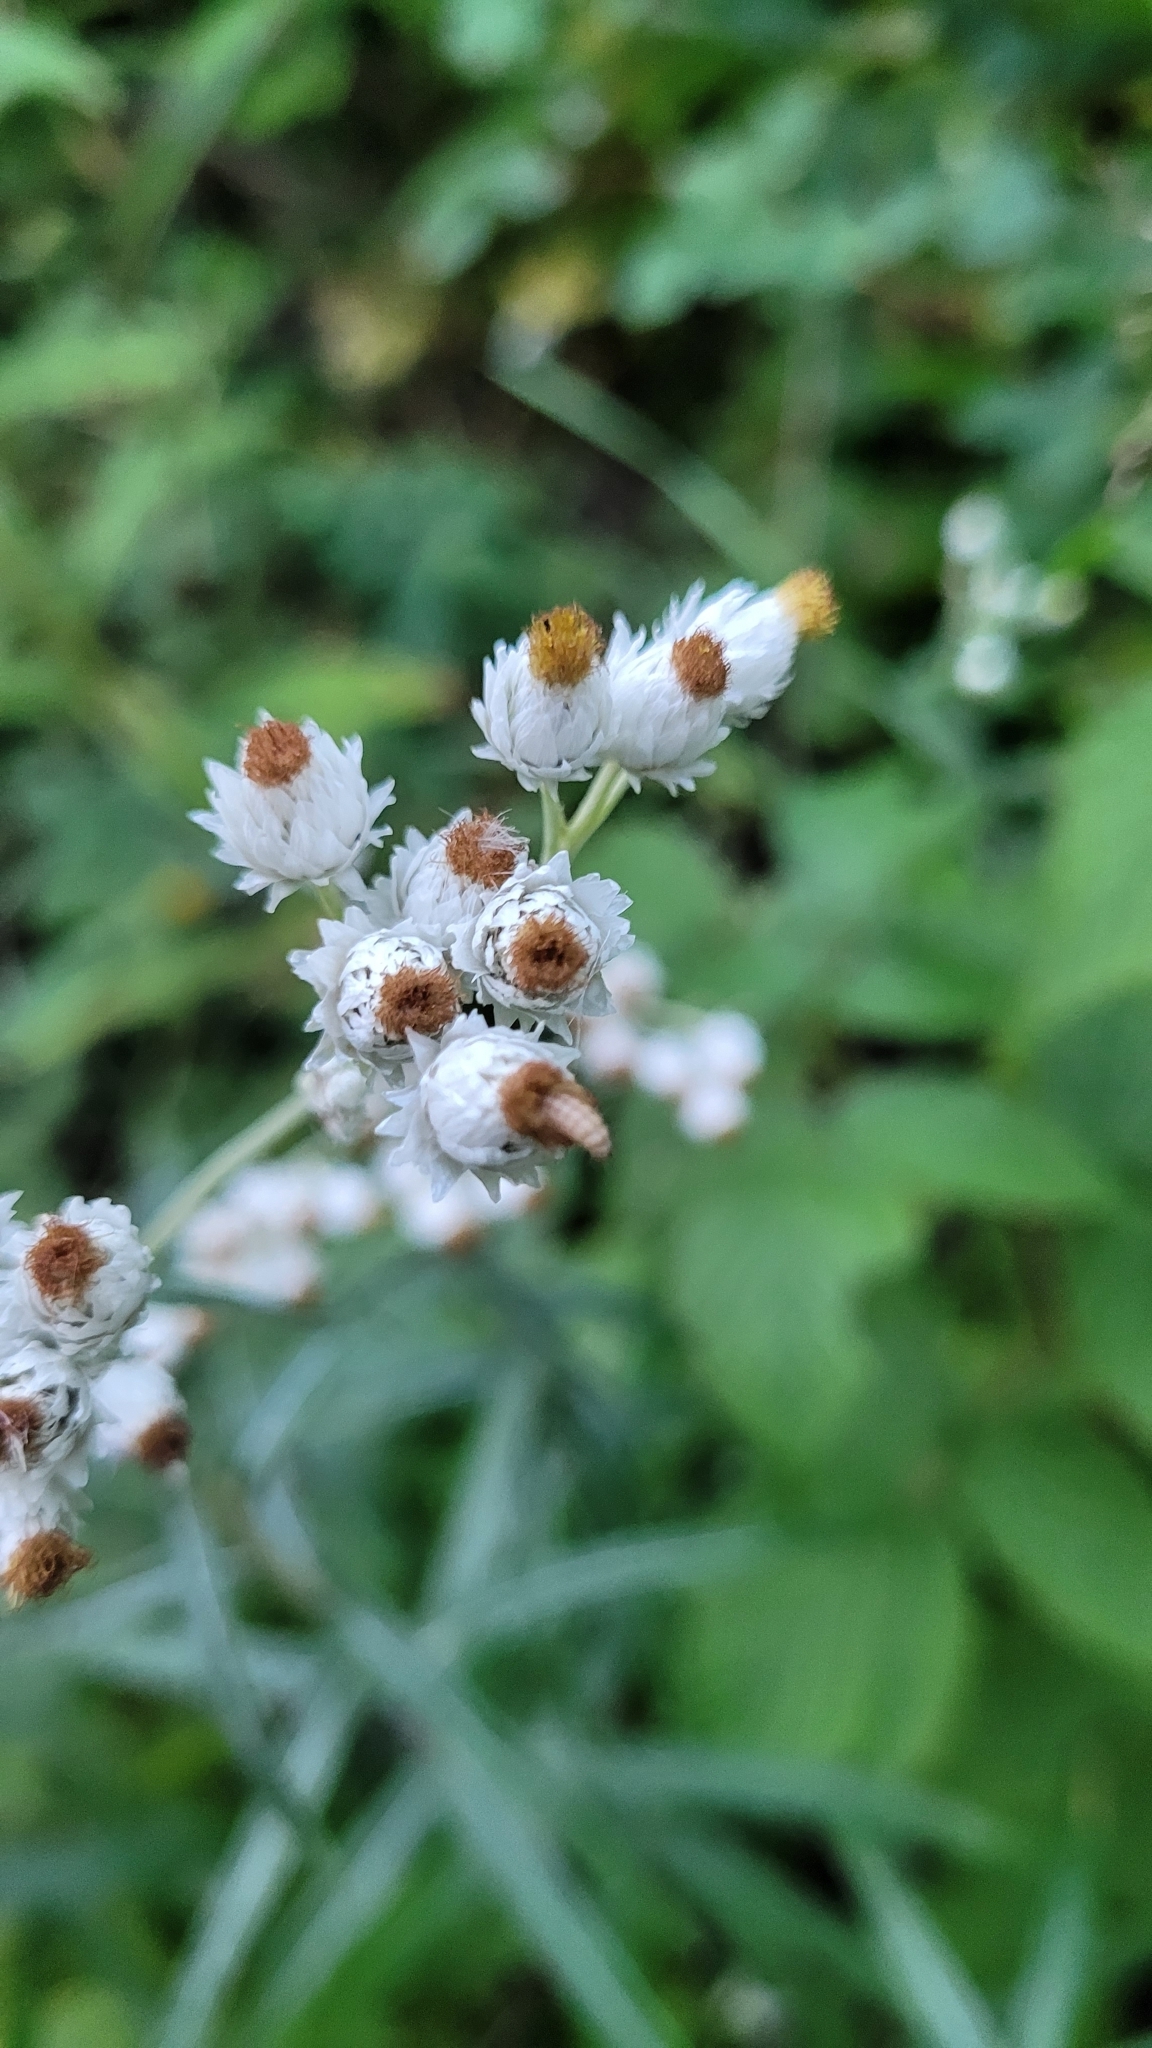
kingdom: Plantae
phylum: Tracheophyta
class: Magnoliopsida
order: Asterales
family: Asteraceae
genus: Anaphalis
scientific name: Anaphalis margaritacea
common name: Pearly everlasting
